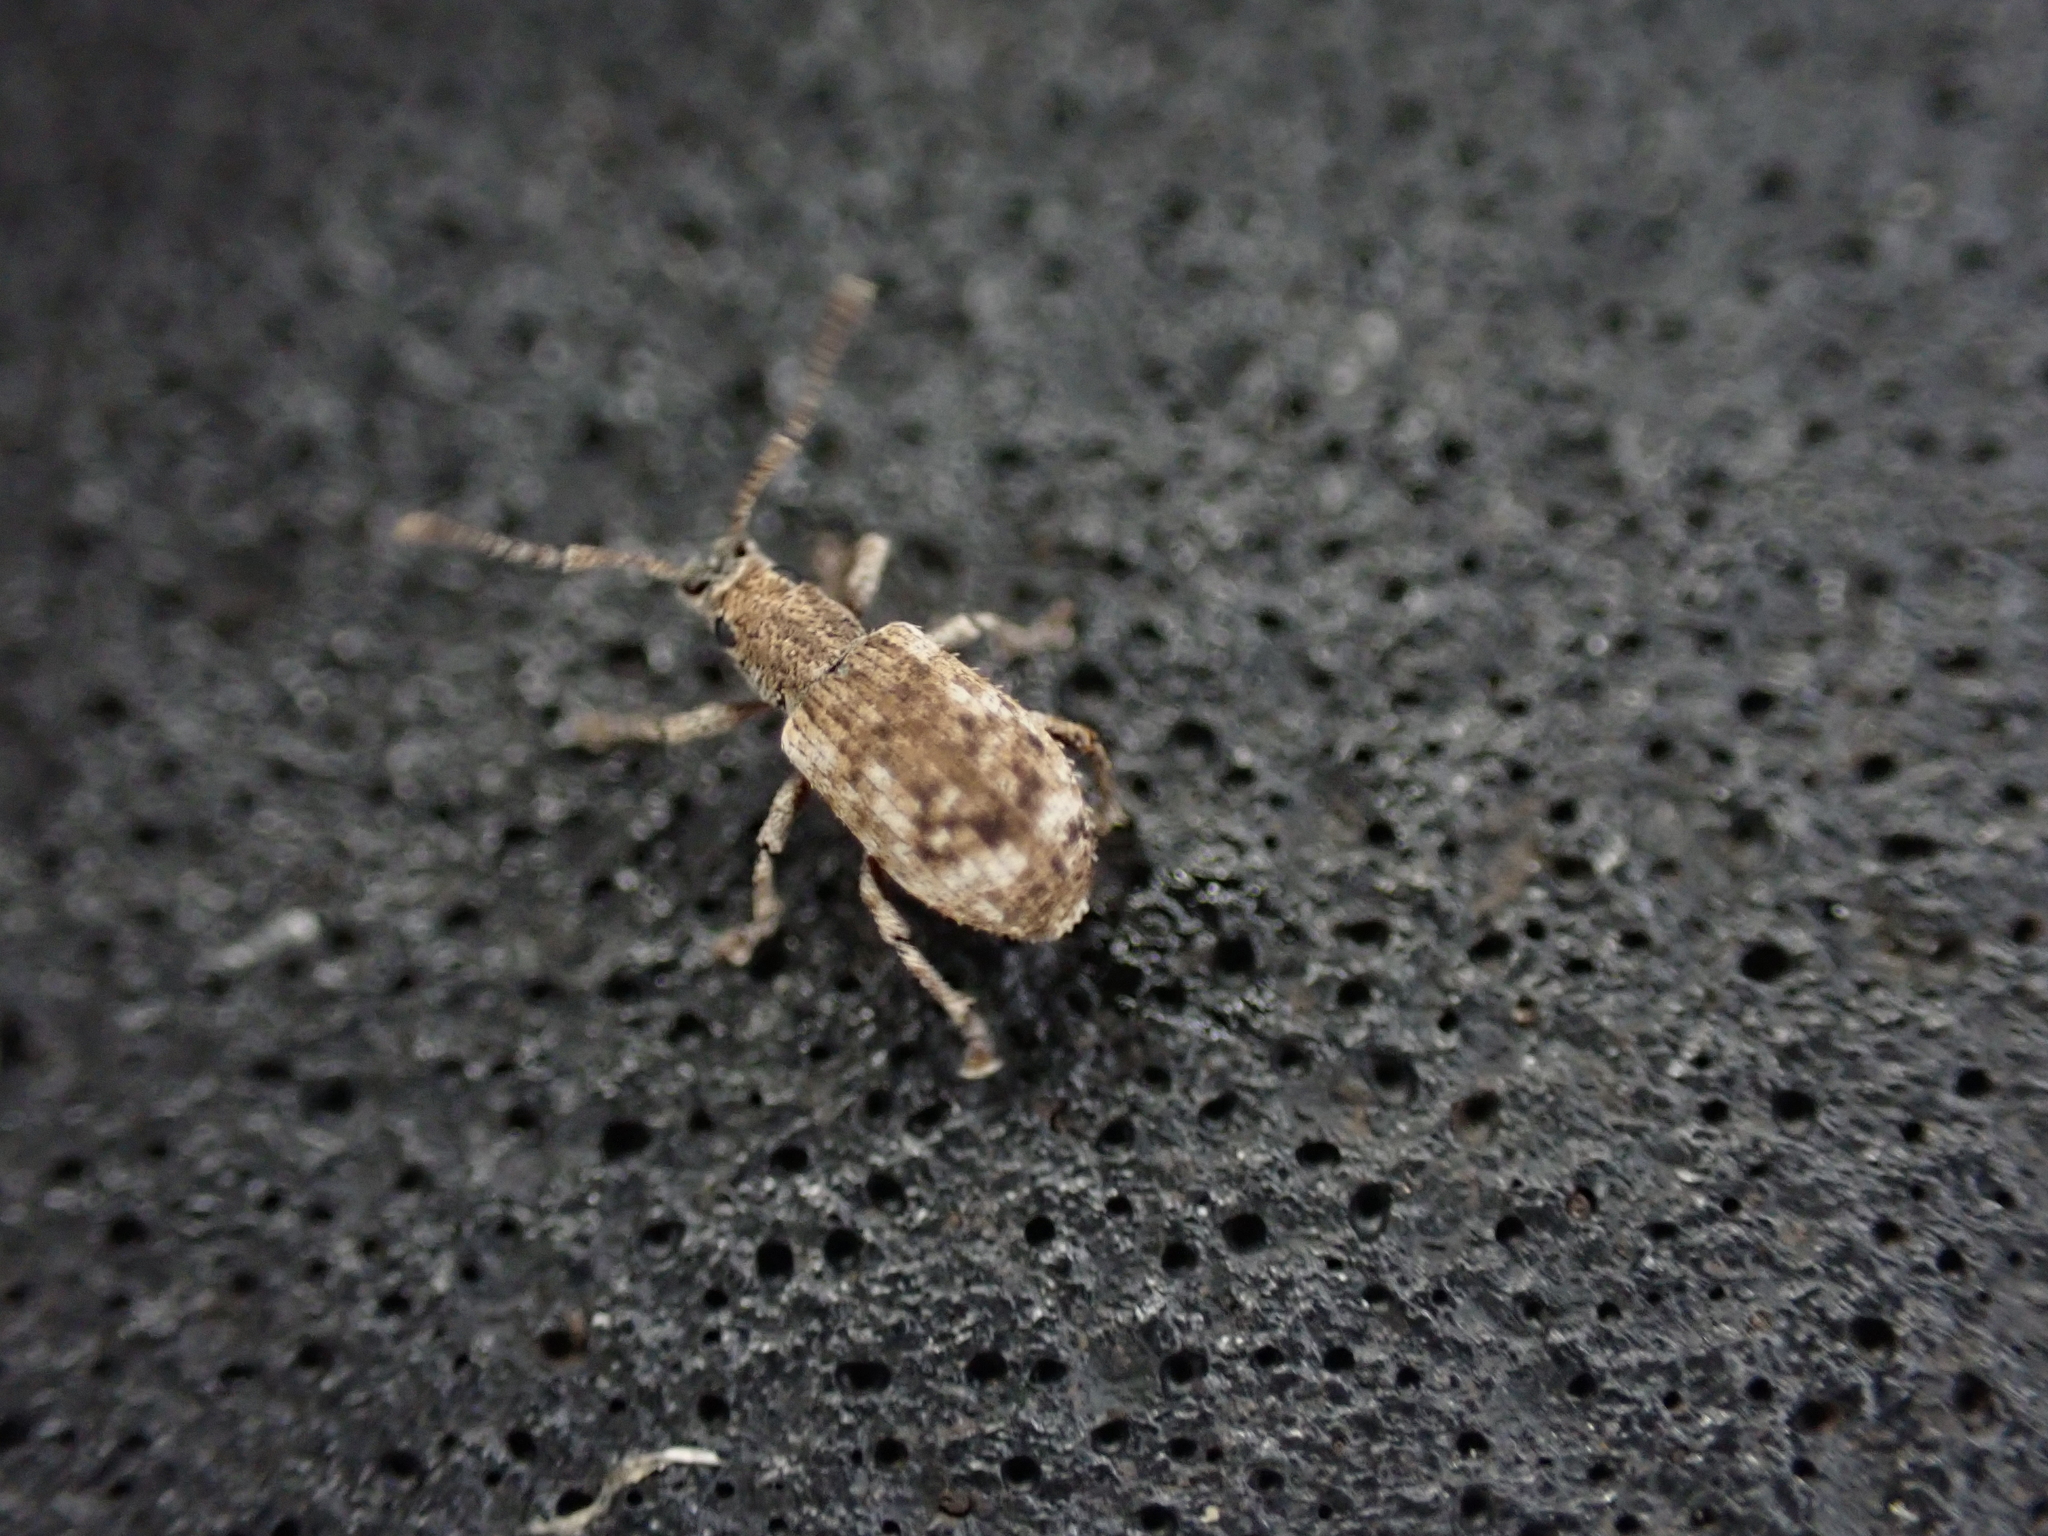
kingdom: Animalia
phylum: Arthropoda
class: Insecta
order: Coleoptera
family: Curculionidae
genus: Pseudoedophrys
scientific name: Pseudoedophrys hilleri
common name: Weevil
